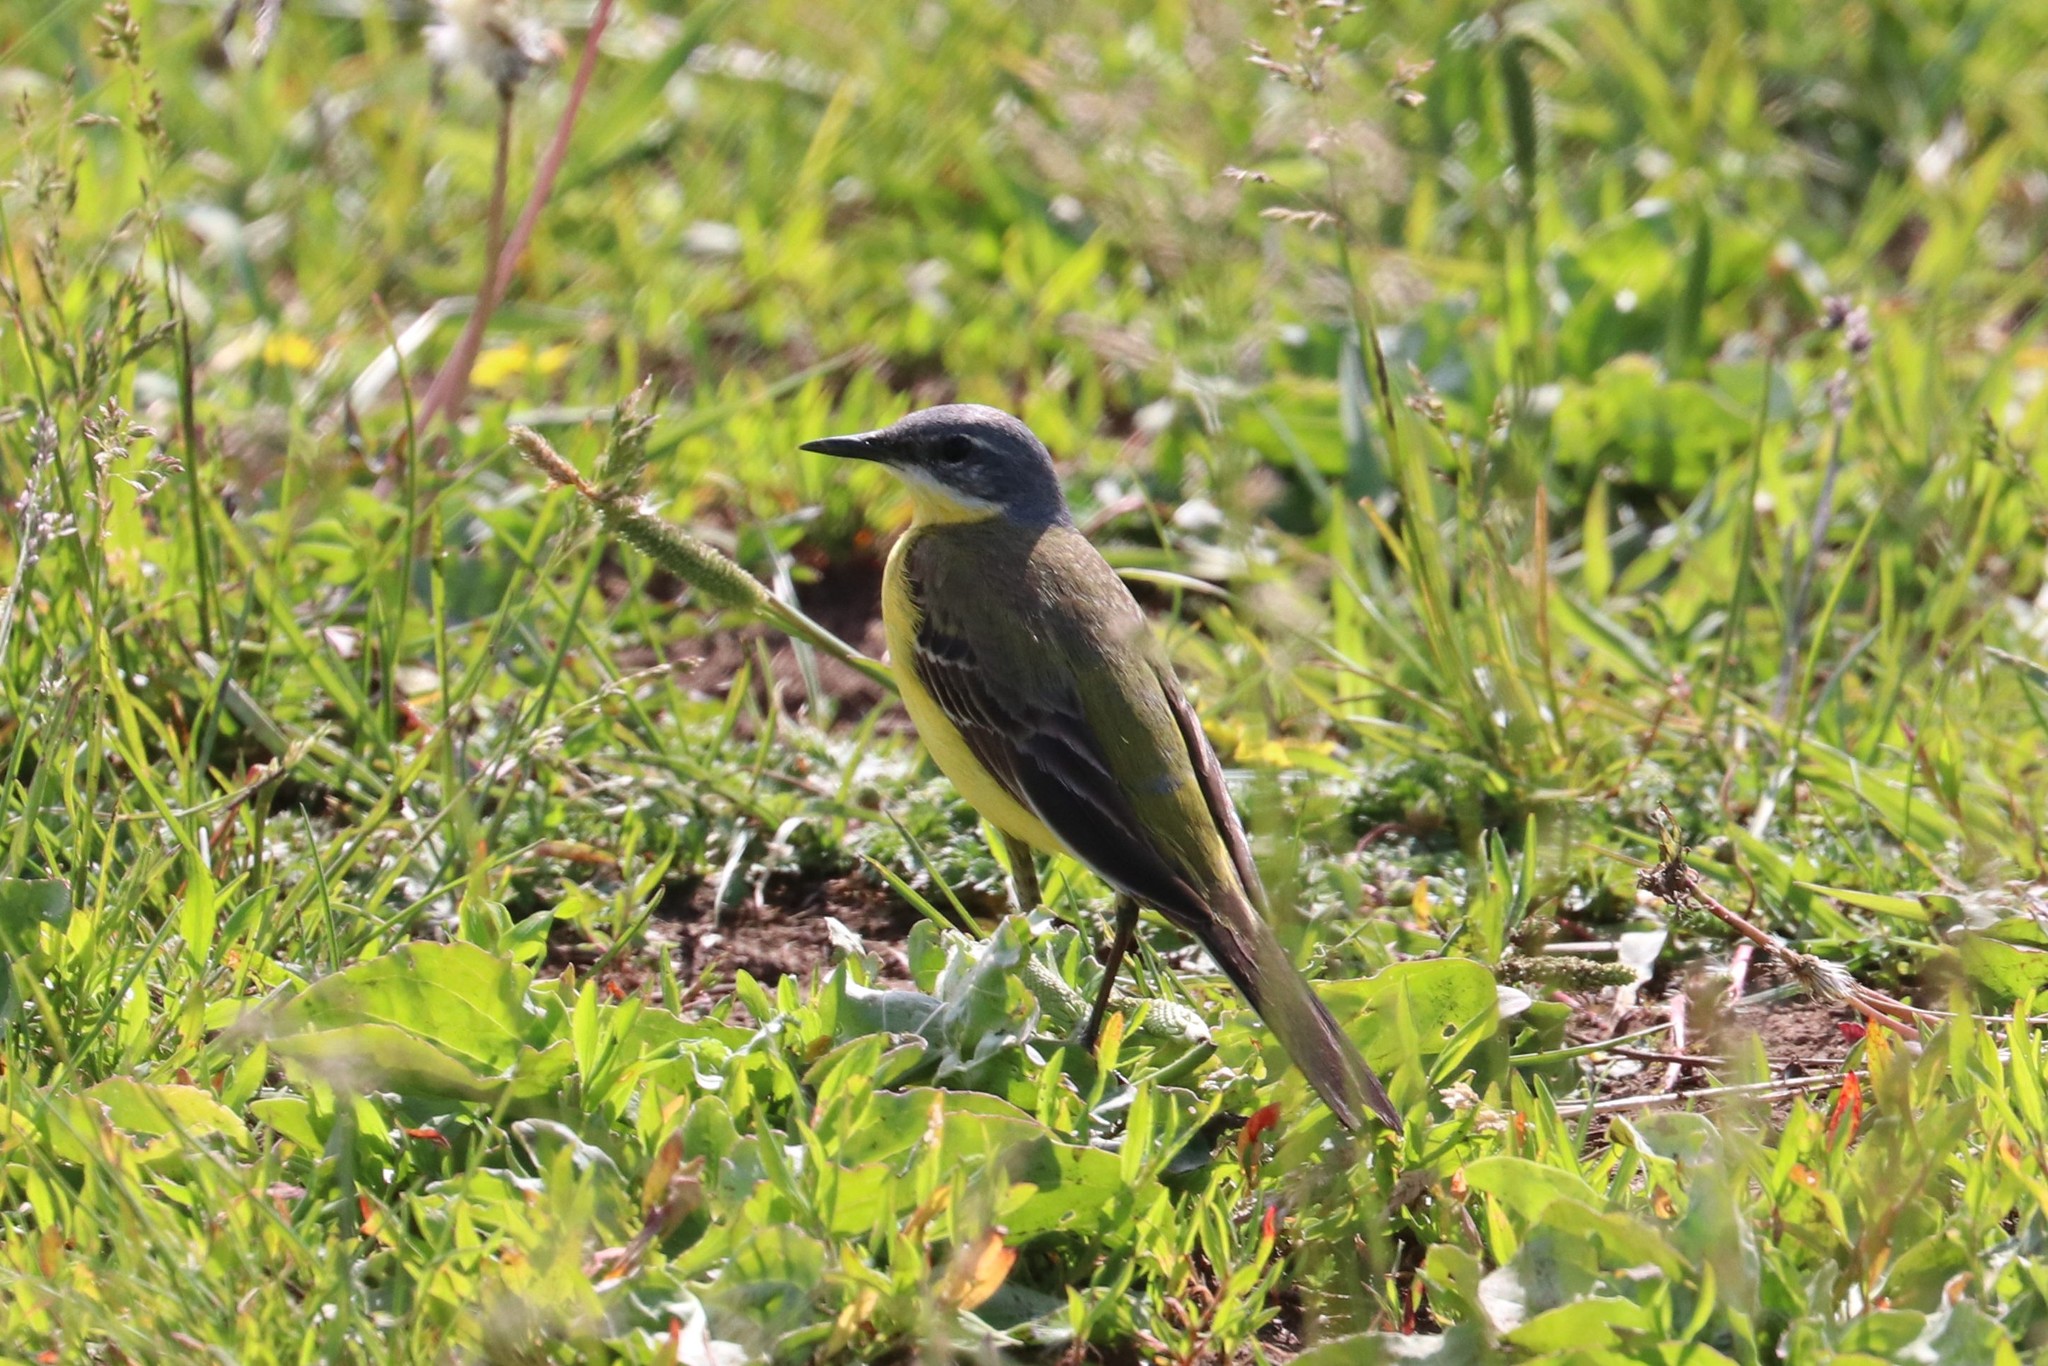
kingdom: Animalia
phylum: Chordata
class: Aves
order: Passeriformes
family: Motacillidae
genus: Motacilla
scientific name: Motacilla flava
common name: Western yellow wagtail
